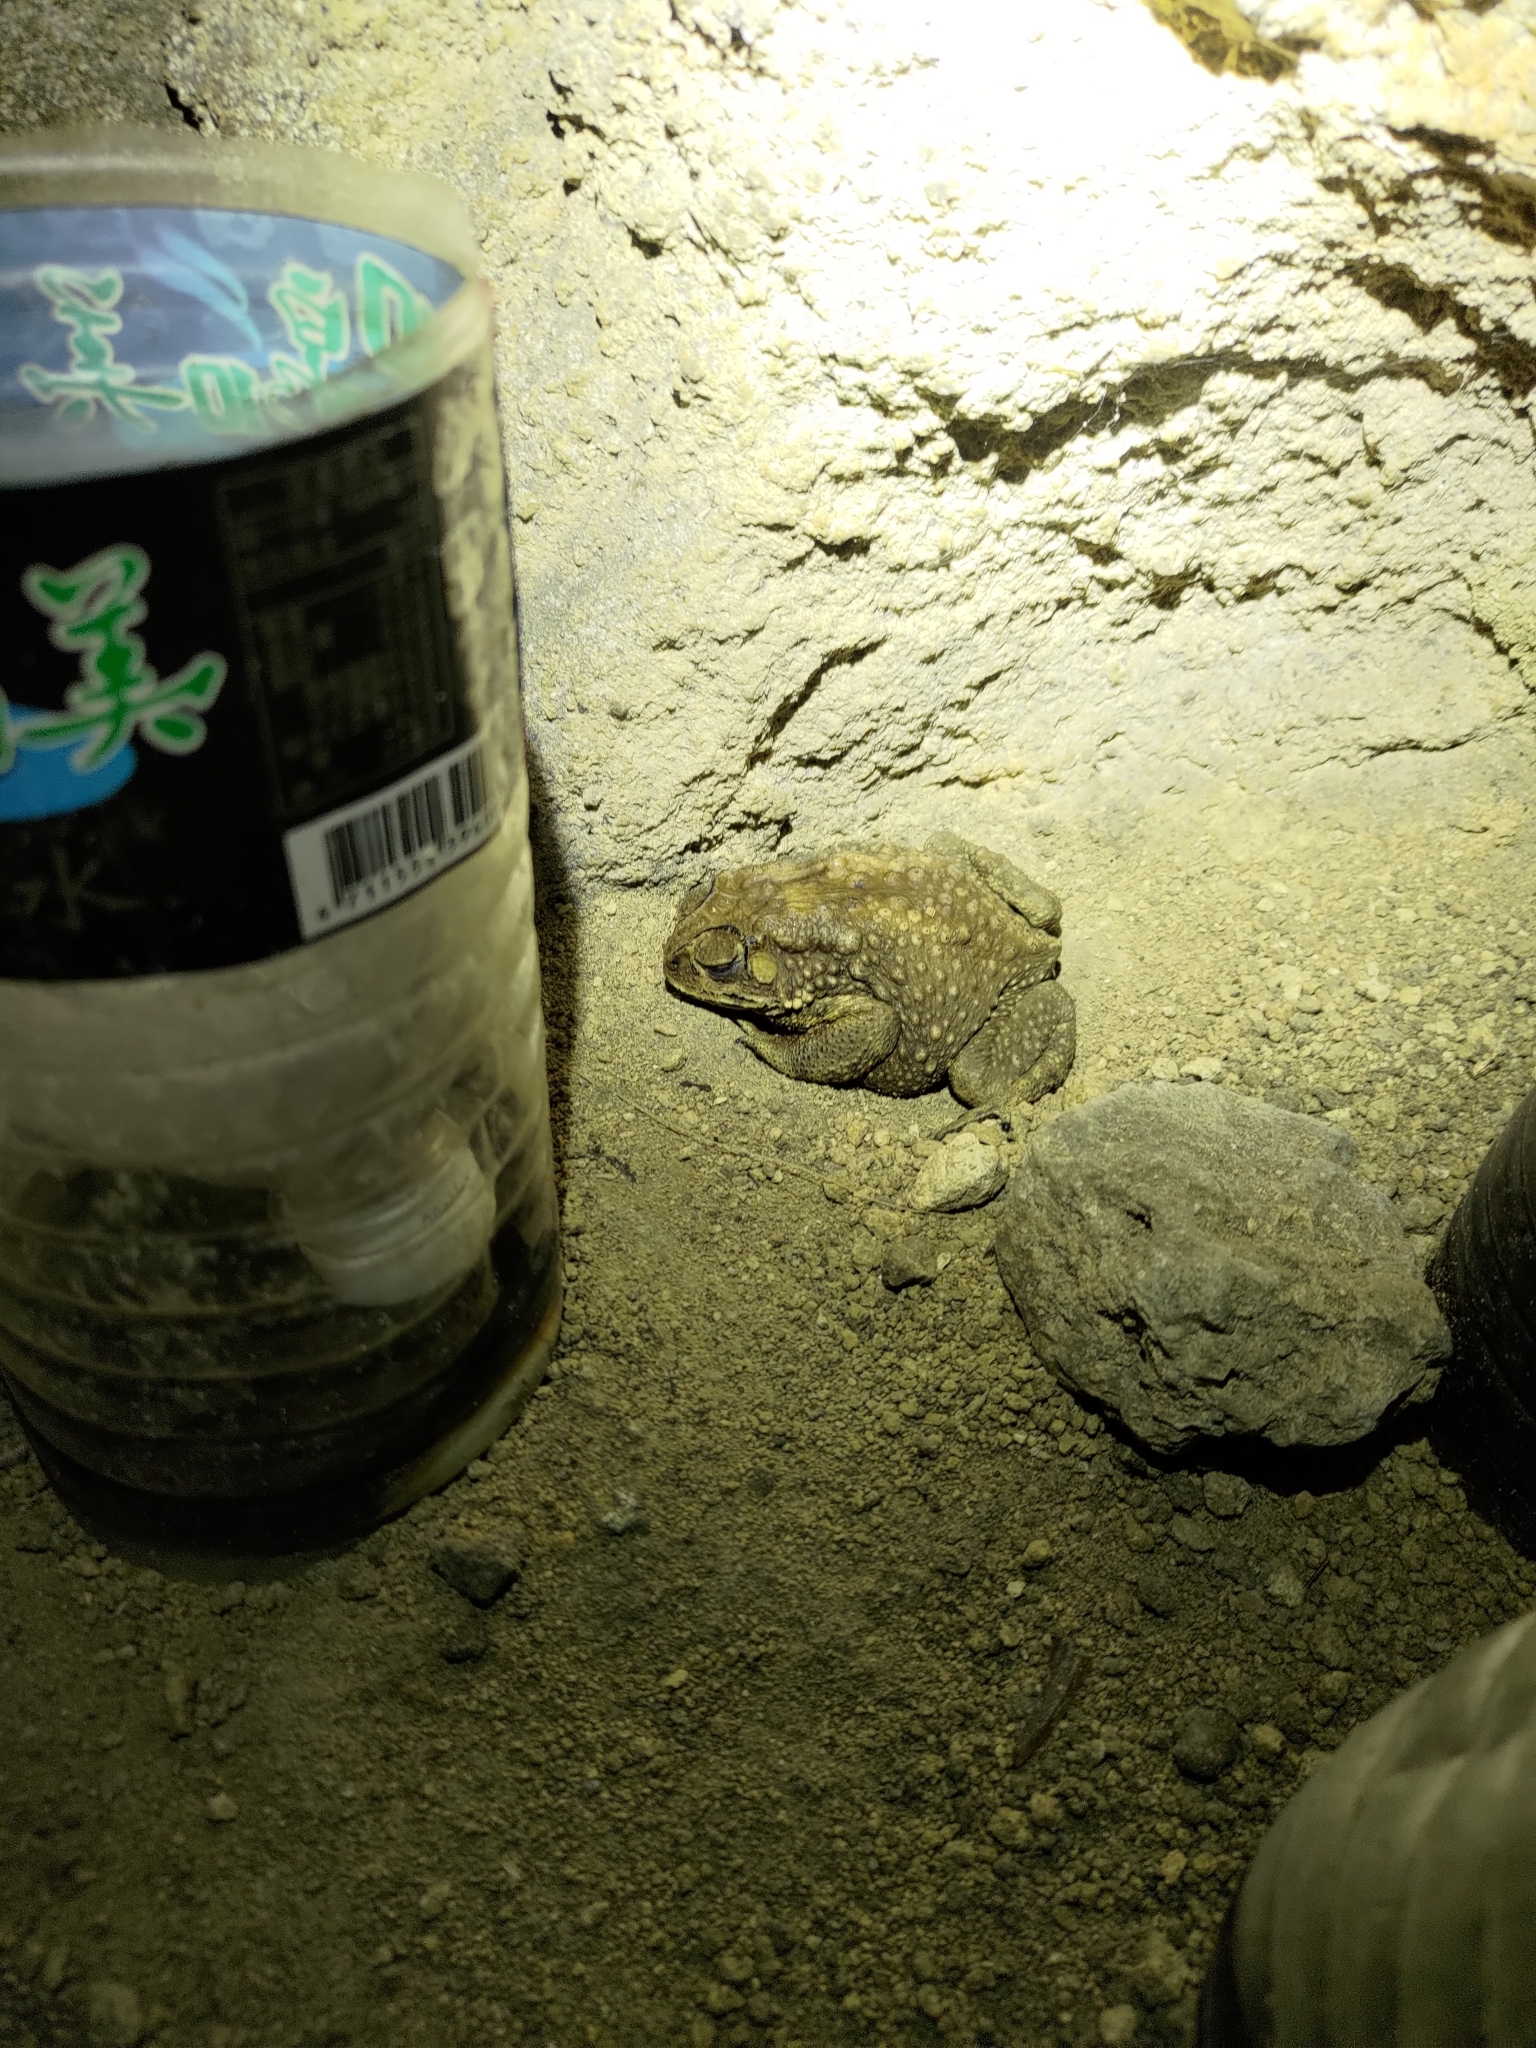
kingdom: Animalia
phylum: Chordata
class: Amphibia
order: Anura
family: Bufonidae
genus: Duttaphrynus
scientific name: Duttaphrynus melanostictus
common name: Common sunda toad
